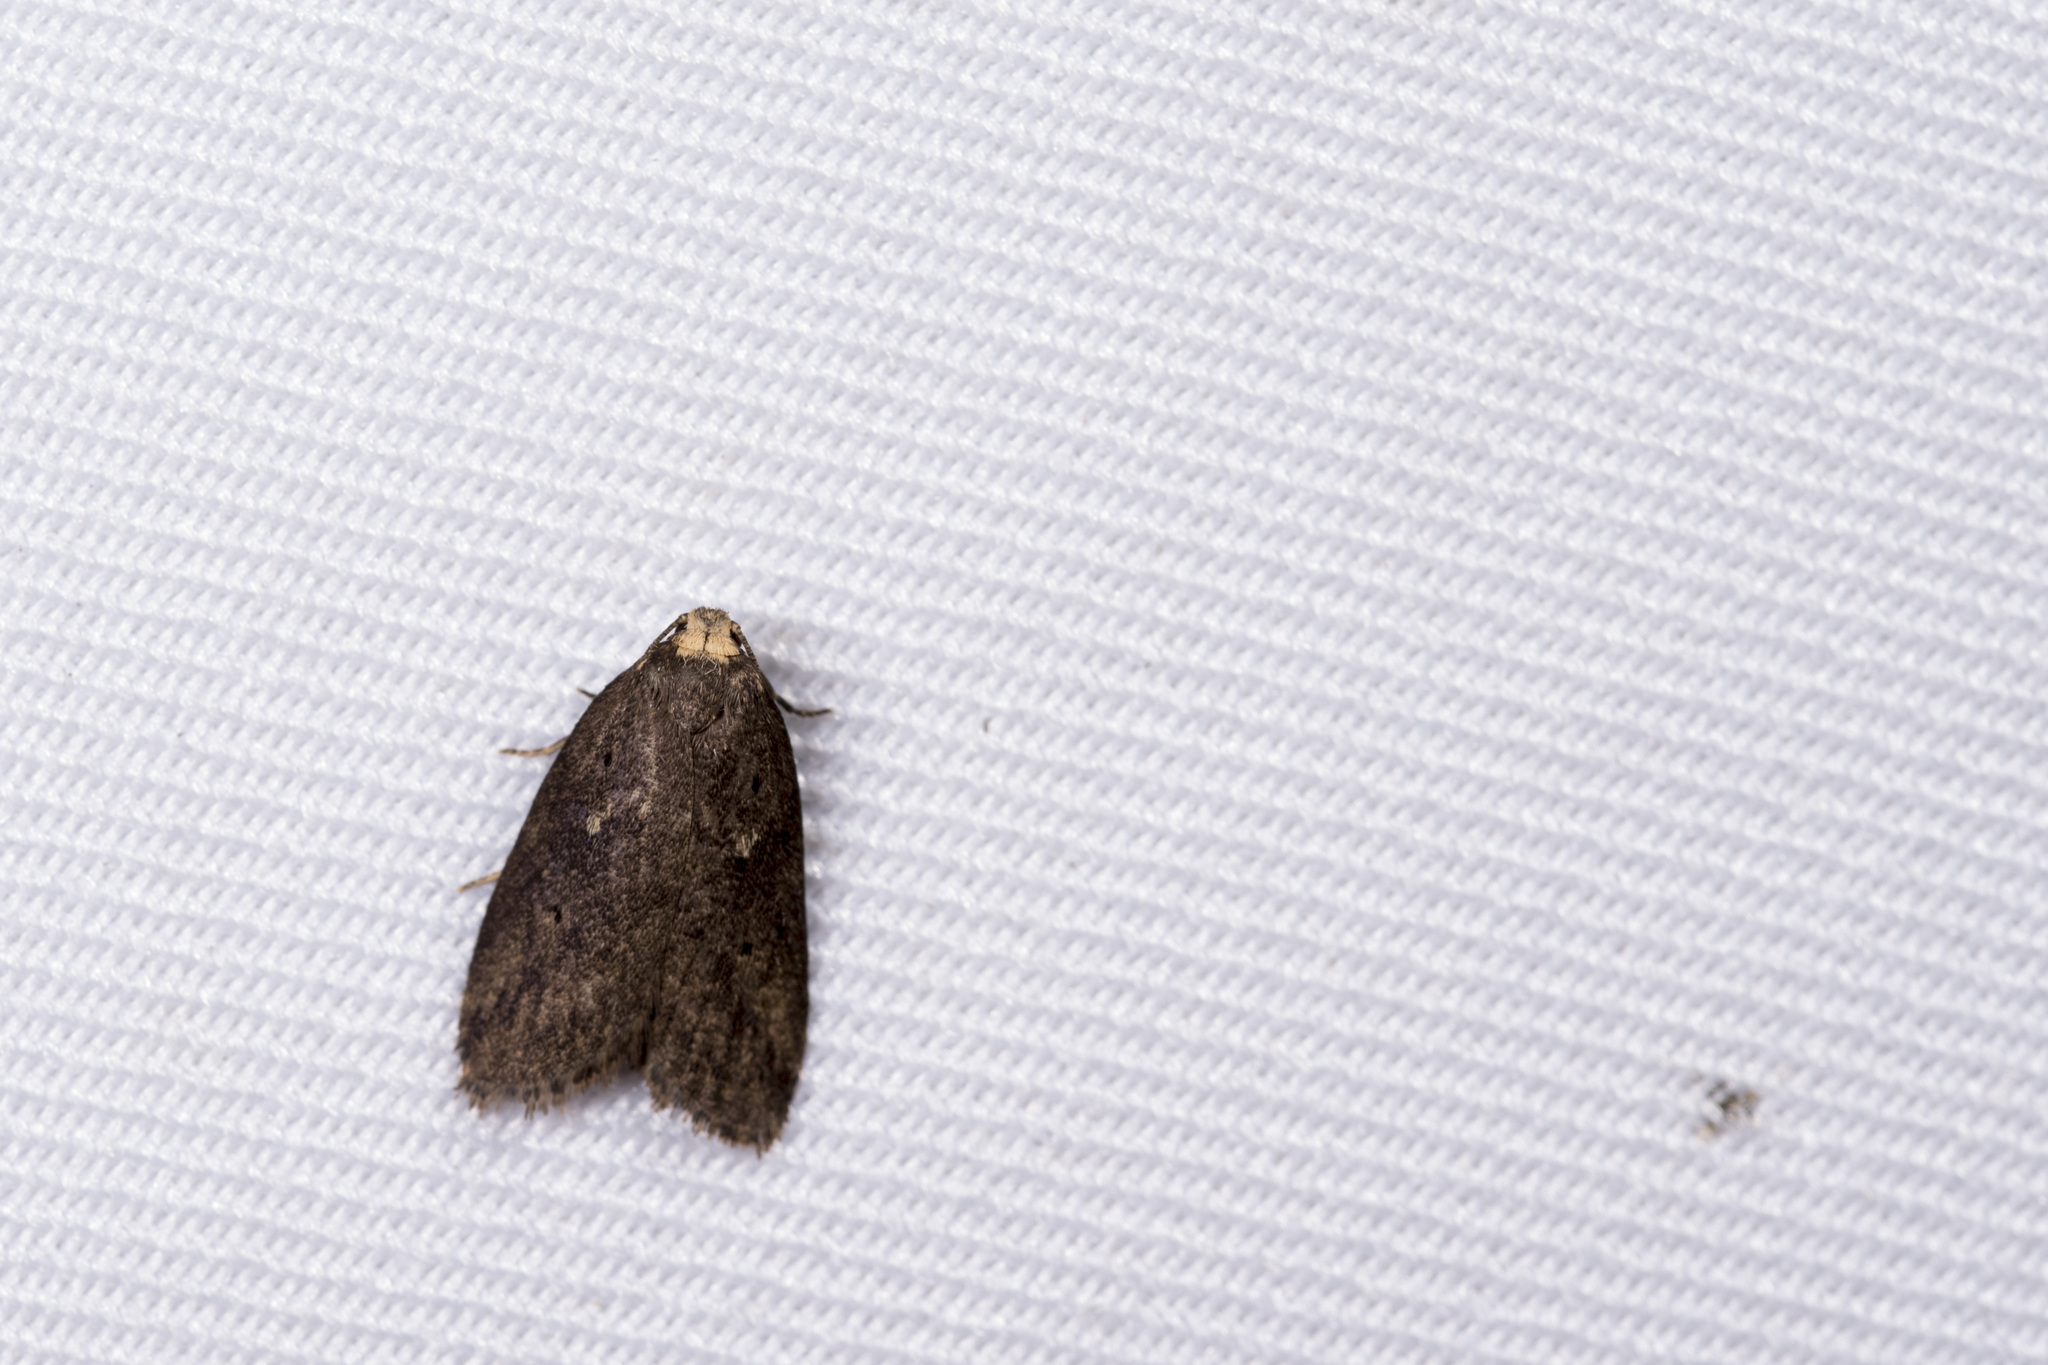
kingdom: Animalia
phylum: Arthropoda
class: Insecta
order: Lepidoptera
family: Erebidae
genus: Eugoa
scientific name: Eugoa brunnea
